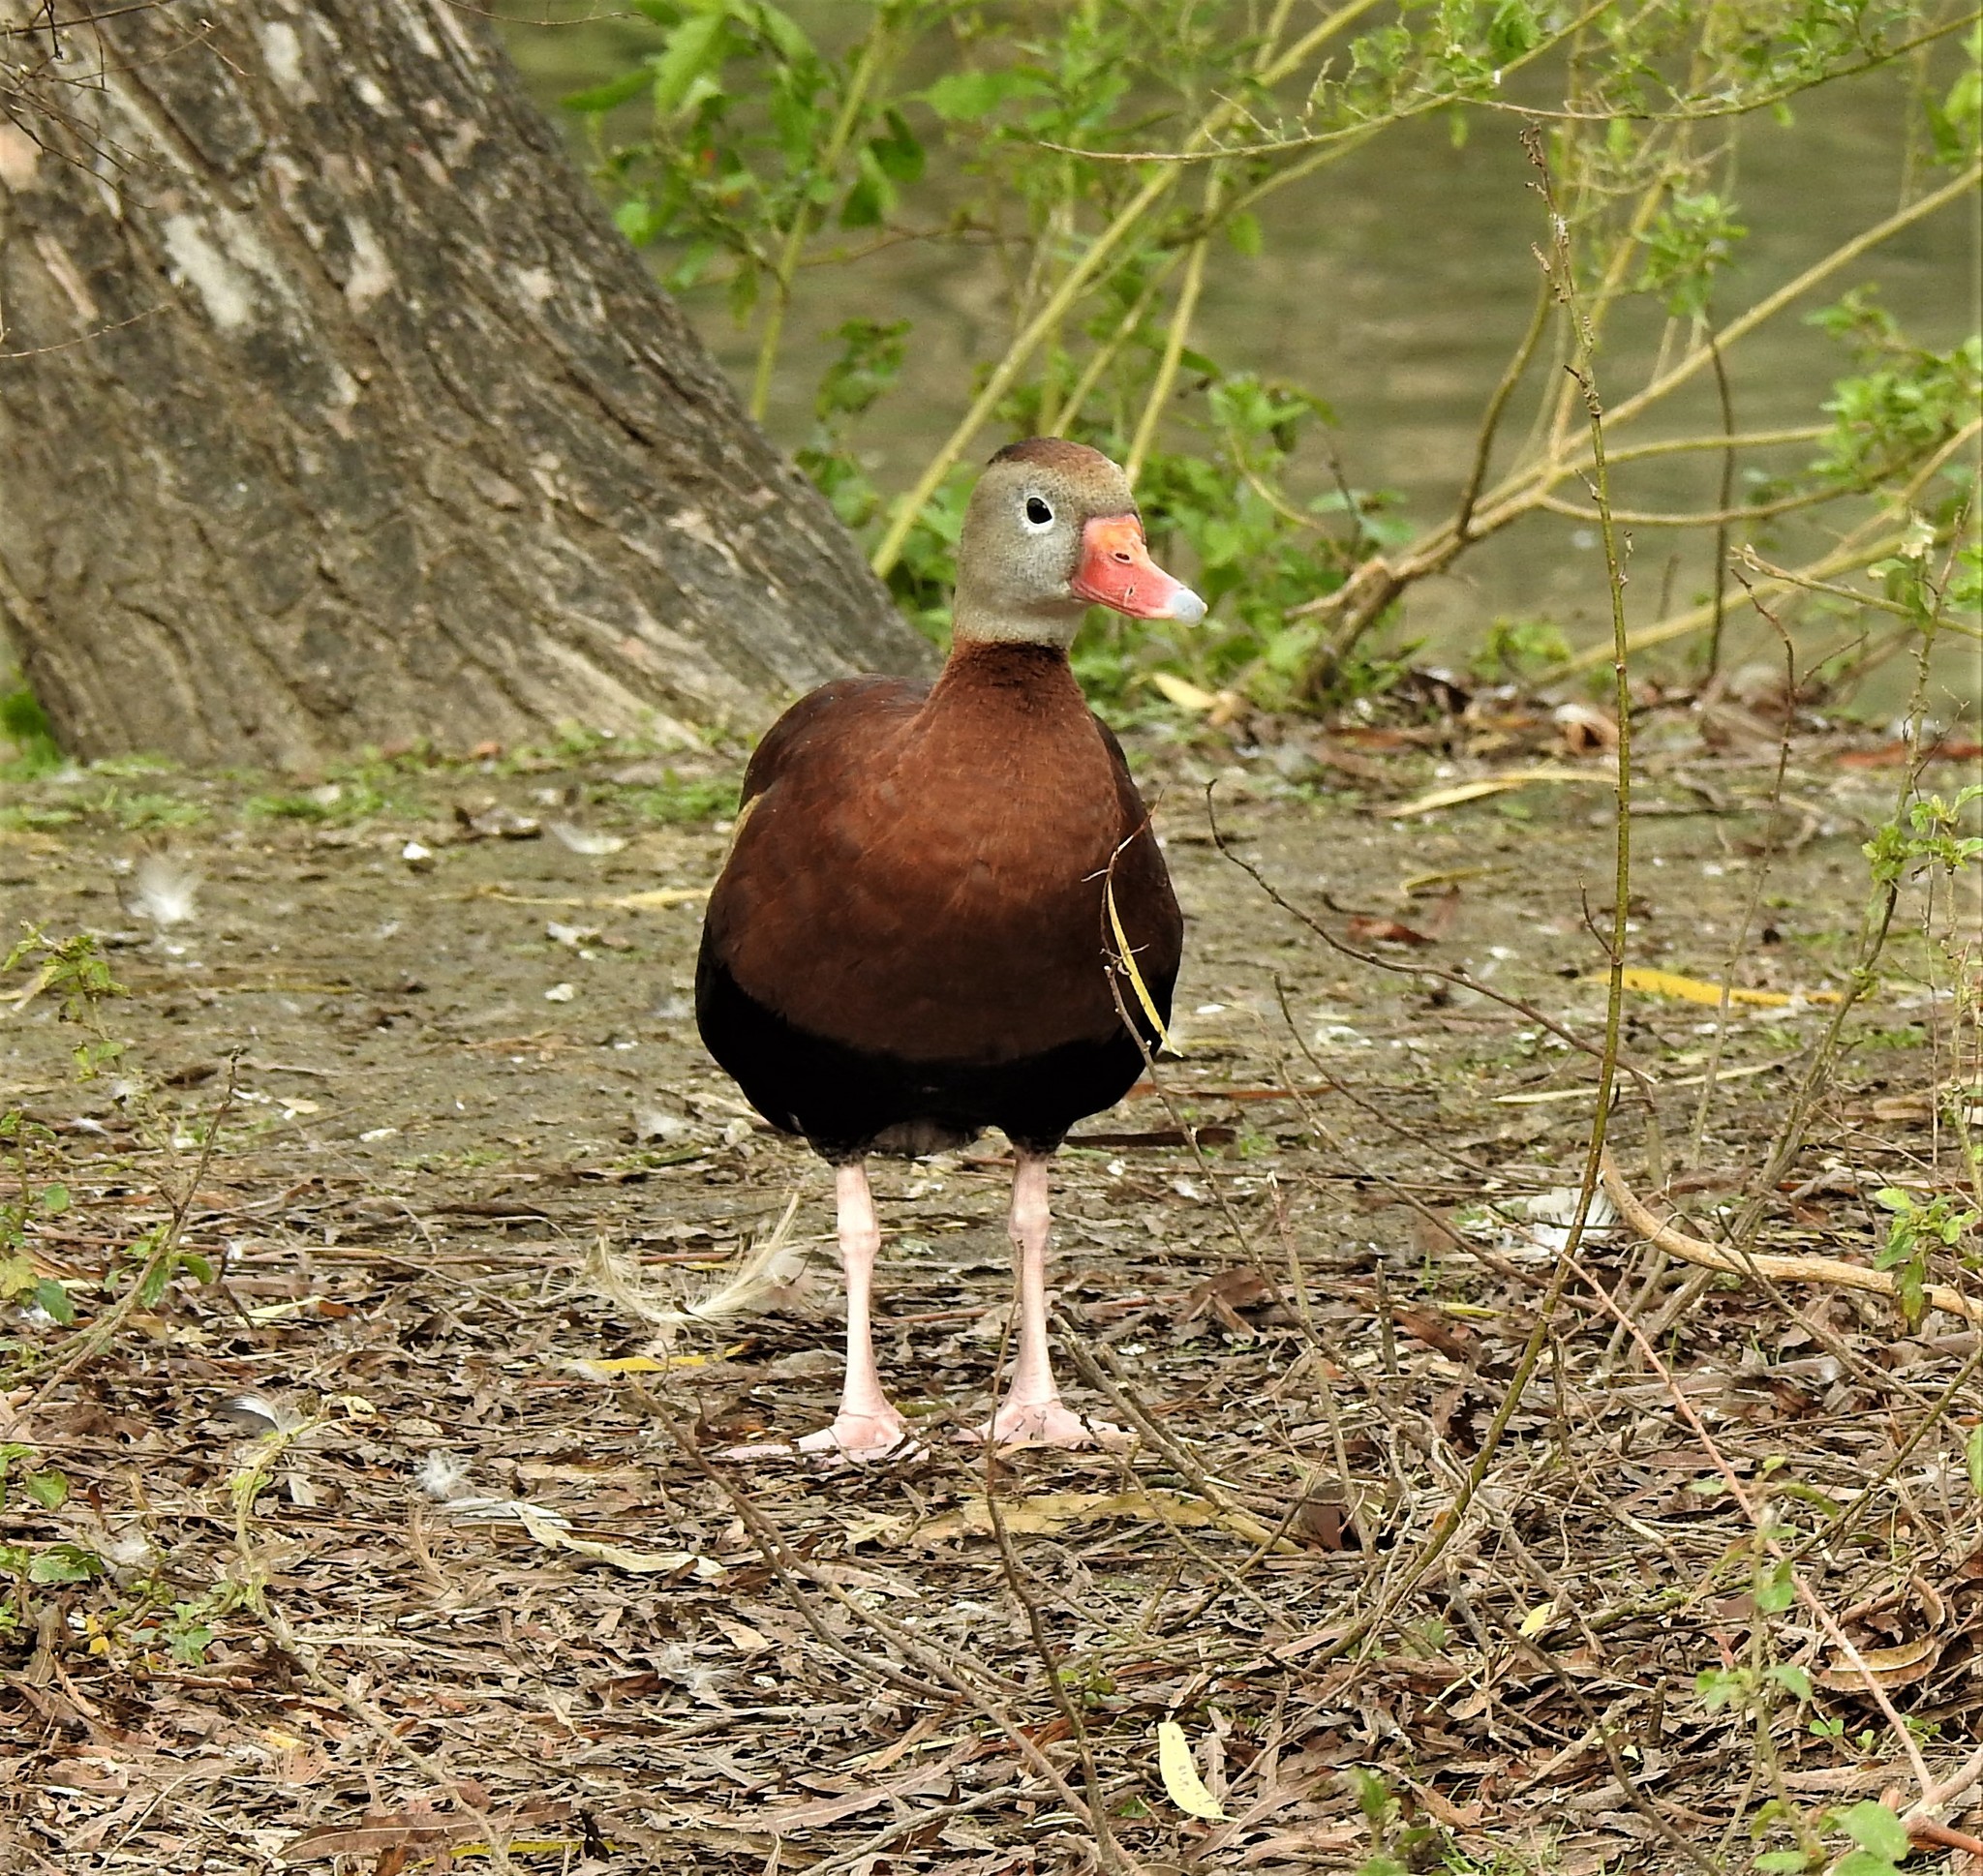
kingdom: Animalia
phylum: Chordata
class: Aves
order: Anseriformes
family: Anatidae
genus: Dendrocygna
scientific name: Dendrocygna autumnalis
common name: Black-bellied whistling duck
